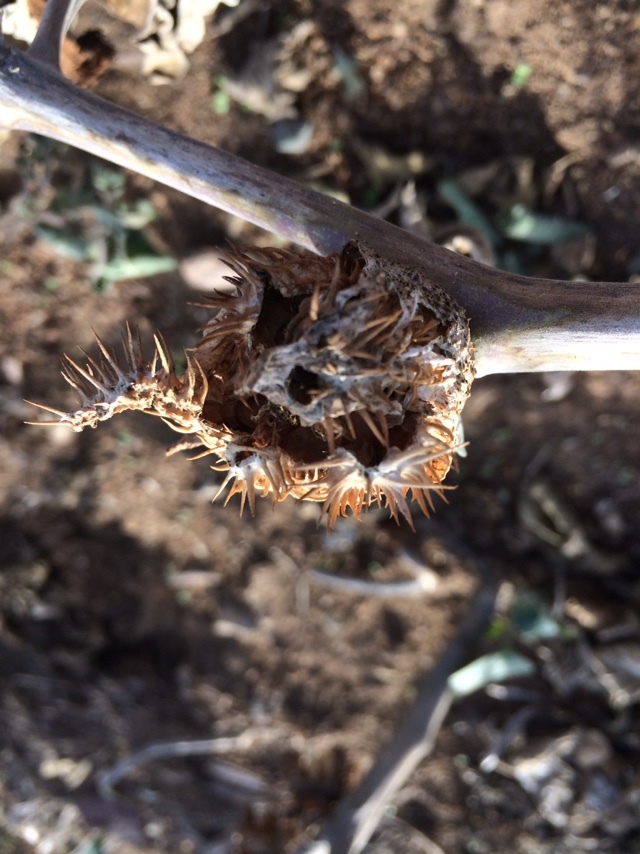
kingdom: Plantae
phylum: Tracheophyta
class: Magnoliopsida
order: Solanales
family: Solanaceae
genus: Datura
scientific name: Datura wrightii
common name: Sacred thorn-apple
